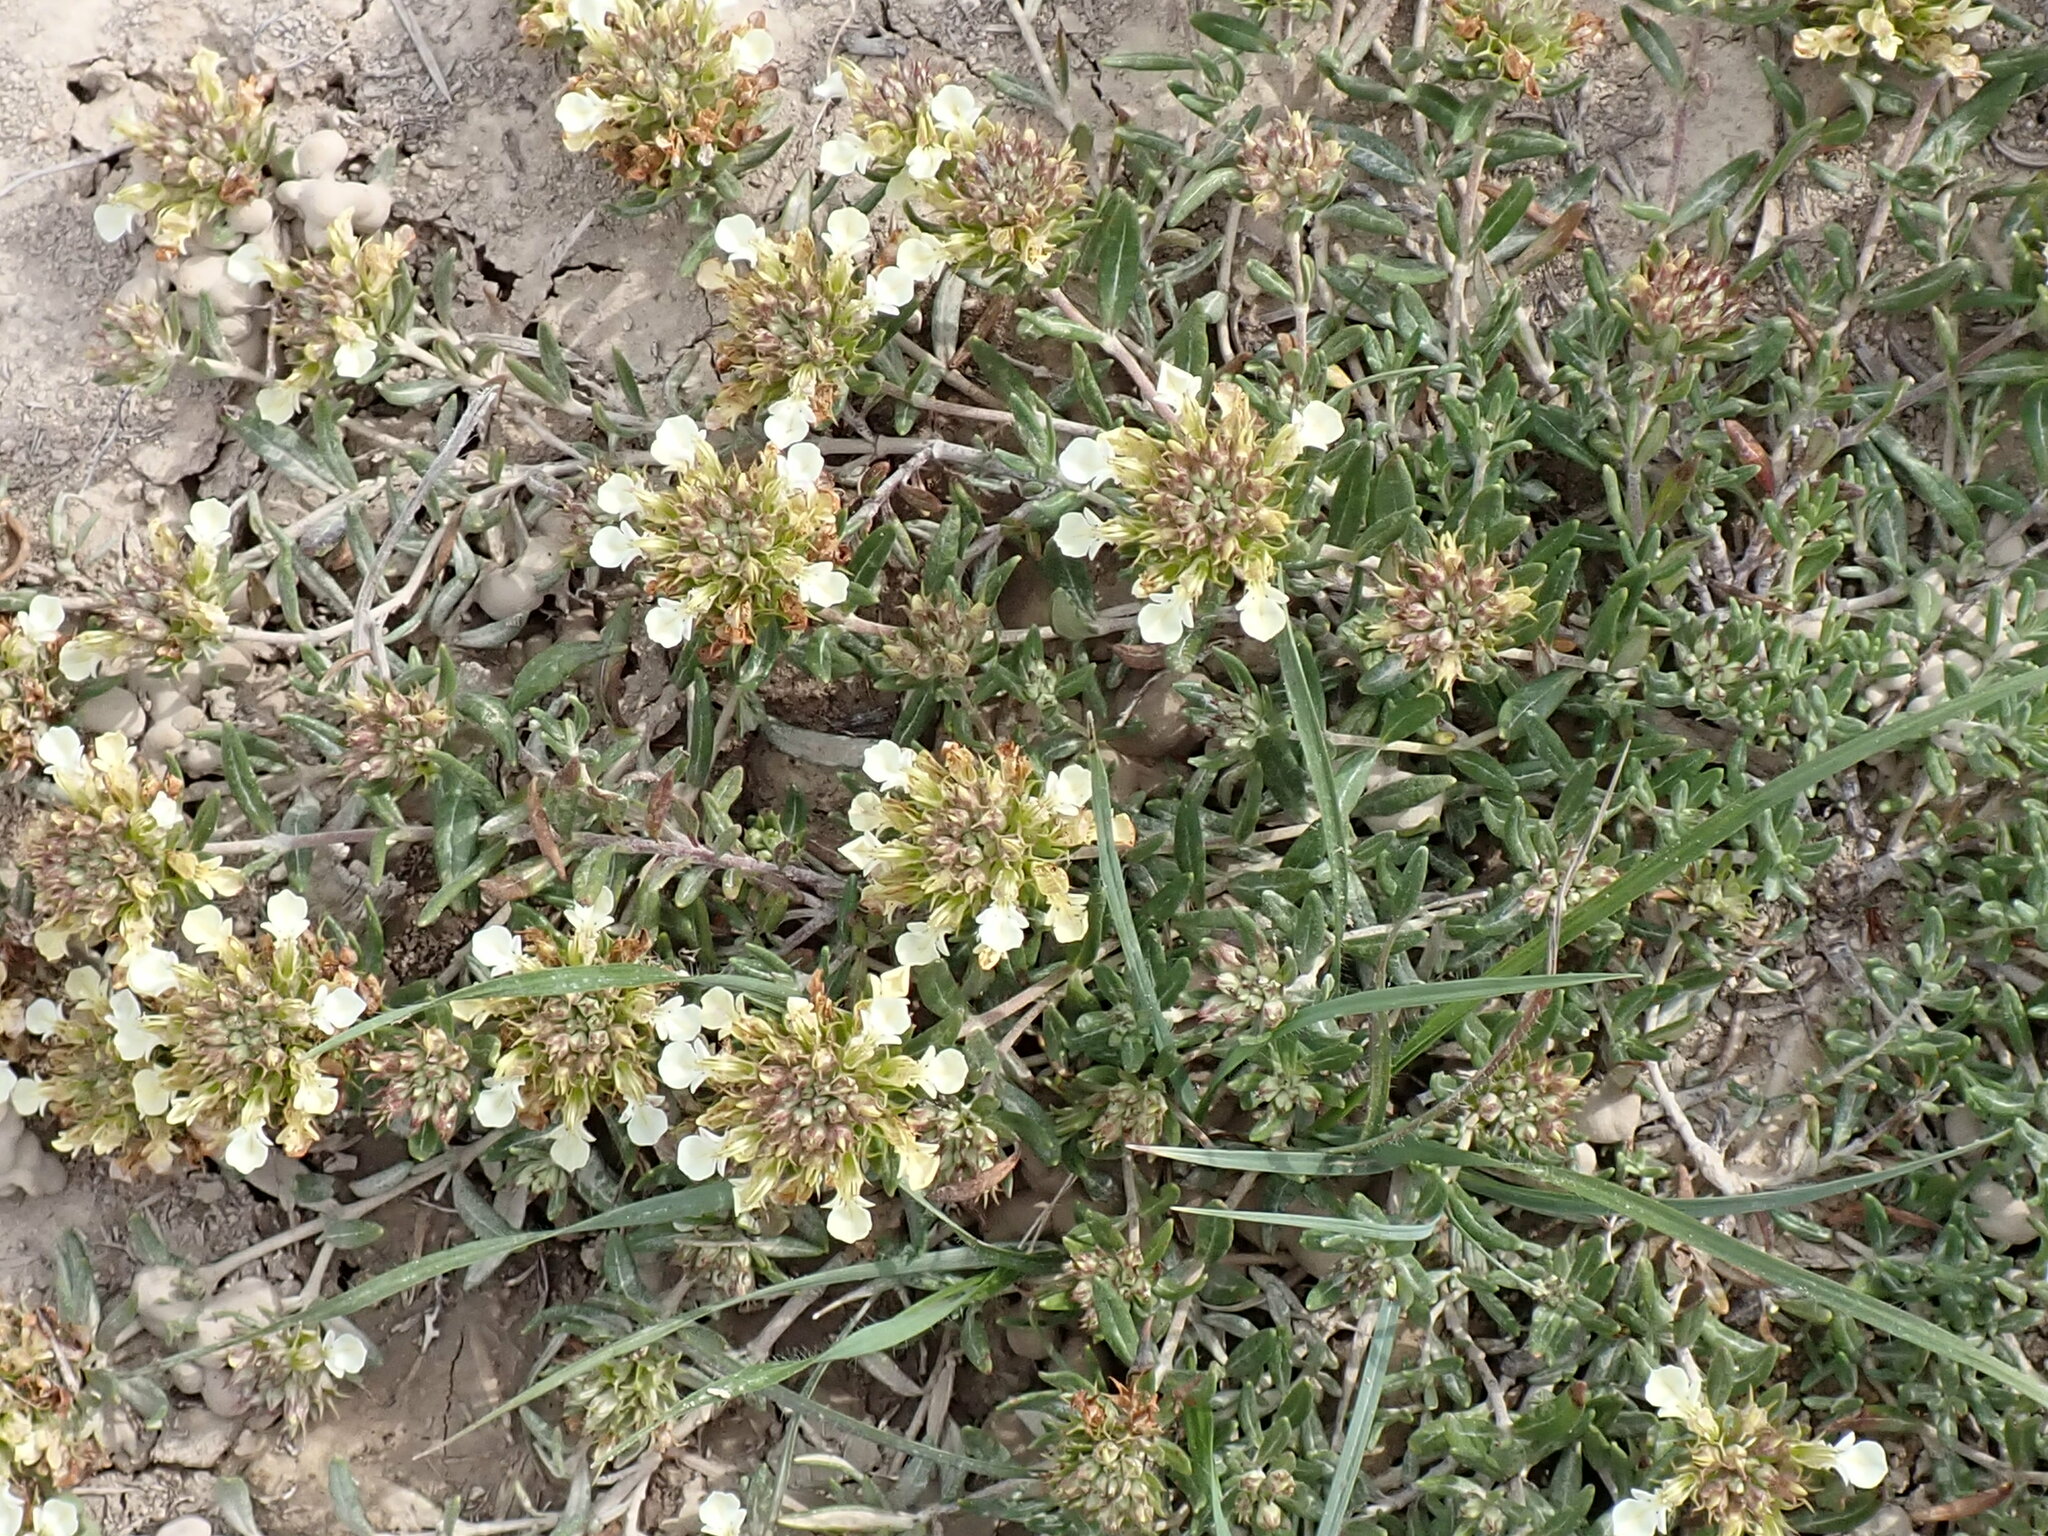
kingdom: Plantae
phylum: Tracheophyta
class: Magnoliopsida
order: Lamiales
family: Lamiaceae
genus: Teucrium
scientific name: Teucrium montanum
